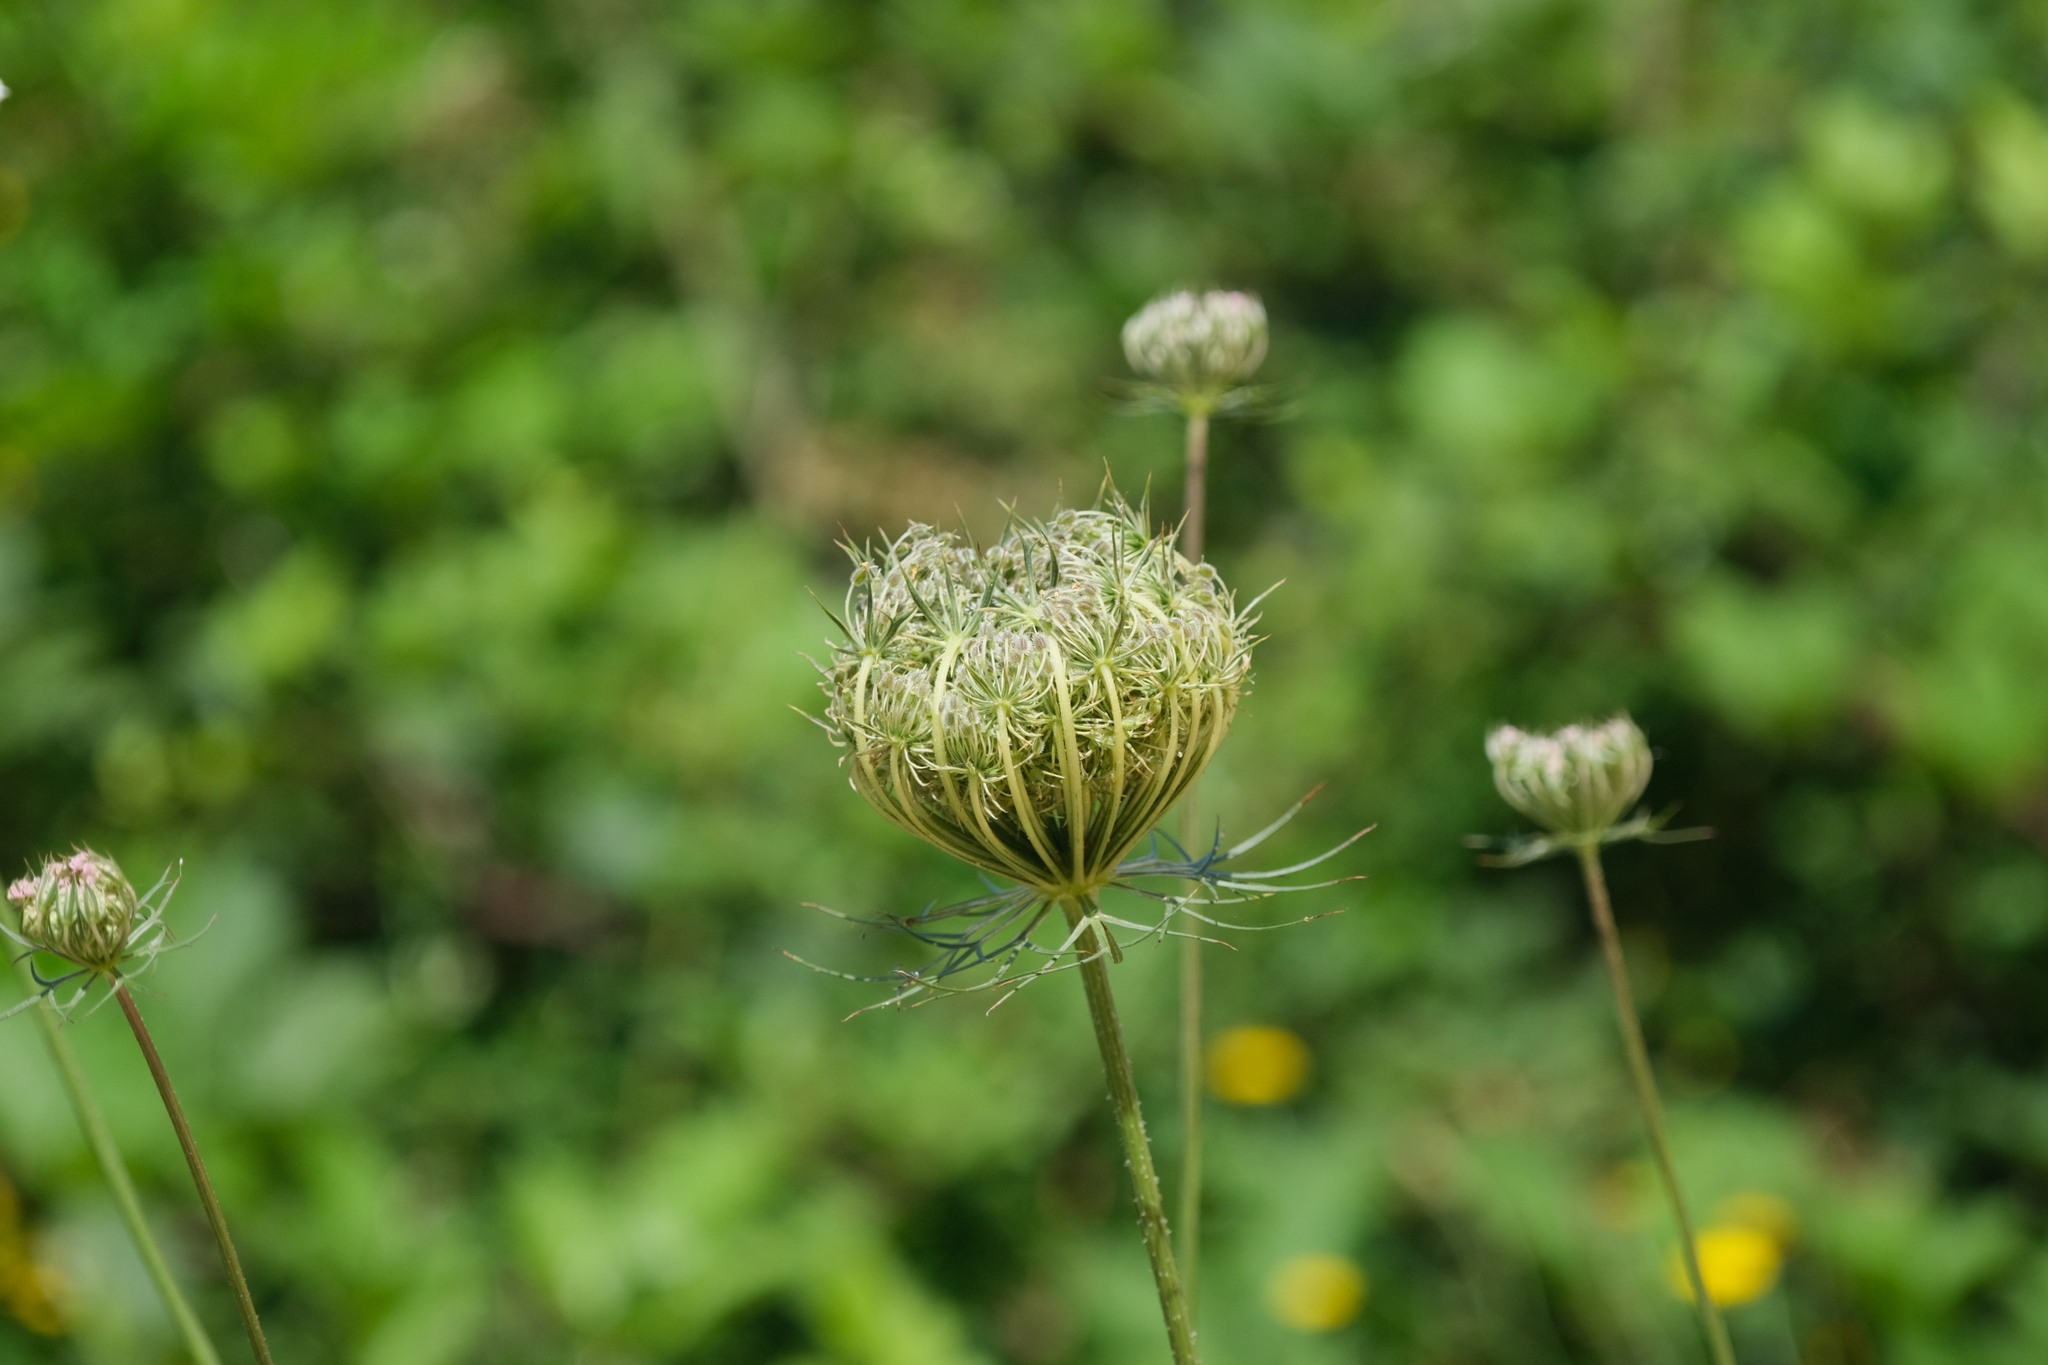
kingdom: Plantae
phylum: Tracheophyta
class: Magnoliopsida
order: Apiales
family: Apiaceae
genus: Daucus
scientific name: Daucus carota
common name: Wild carrot
